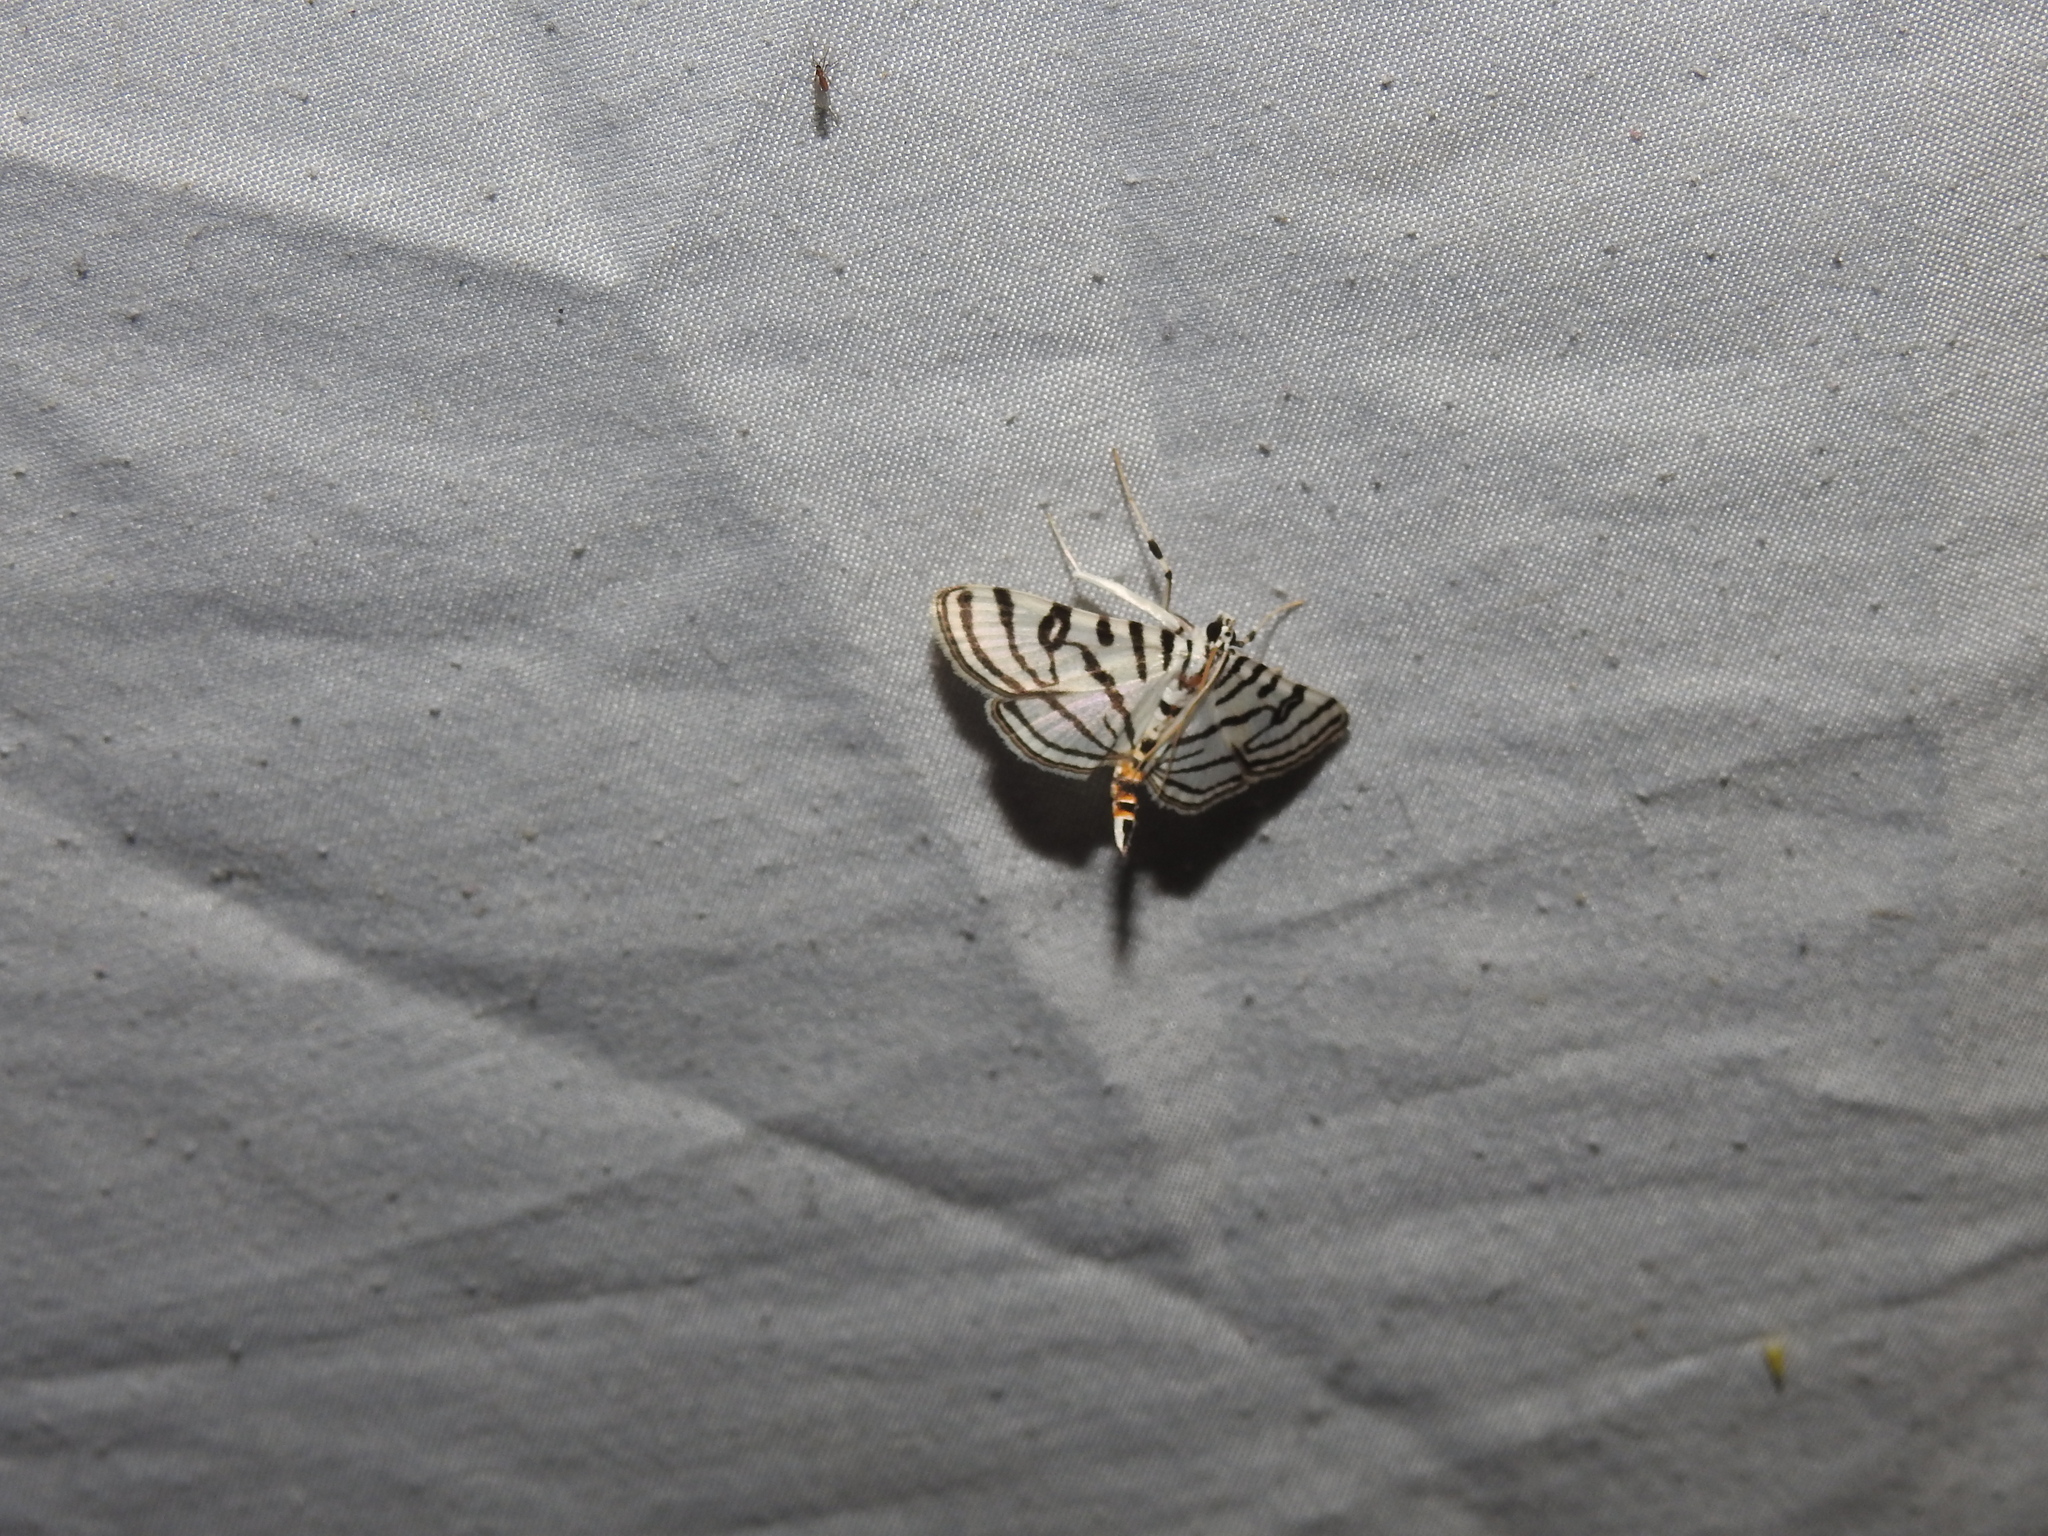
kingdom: Animalia
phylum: Arthropoda
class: Insecta
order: Lepidoptera
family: Crambidae
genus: Conchylodes
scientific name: Conchylodes ovulalis
